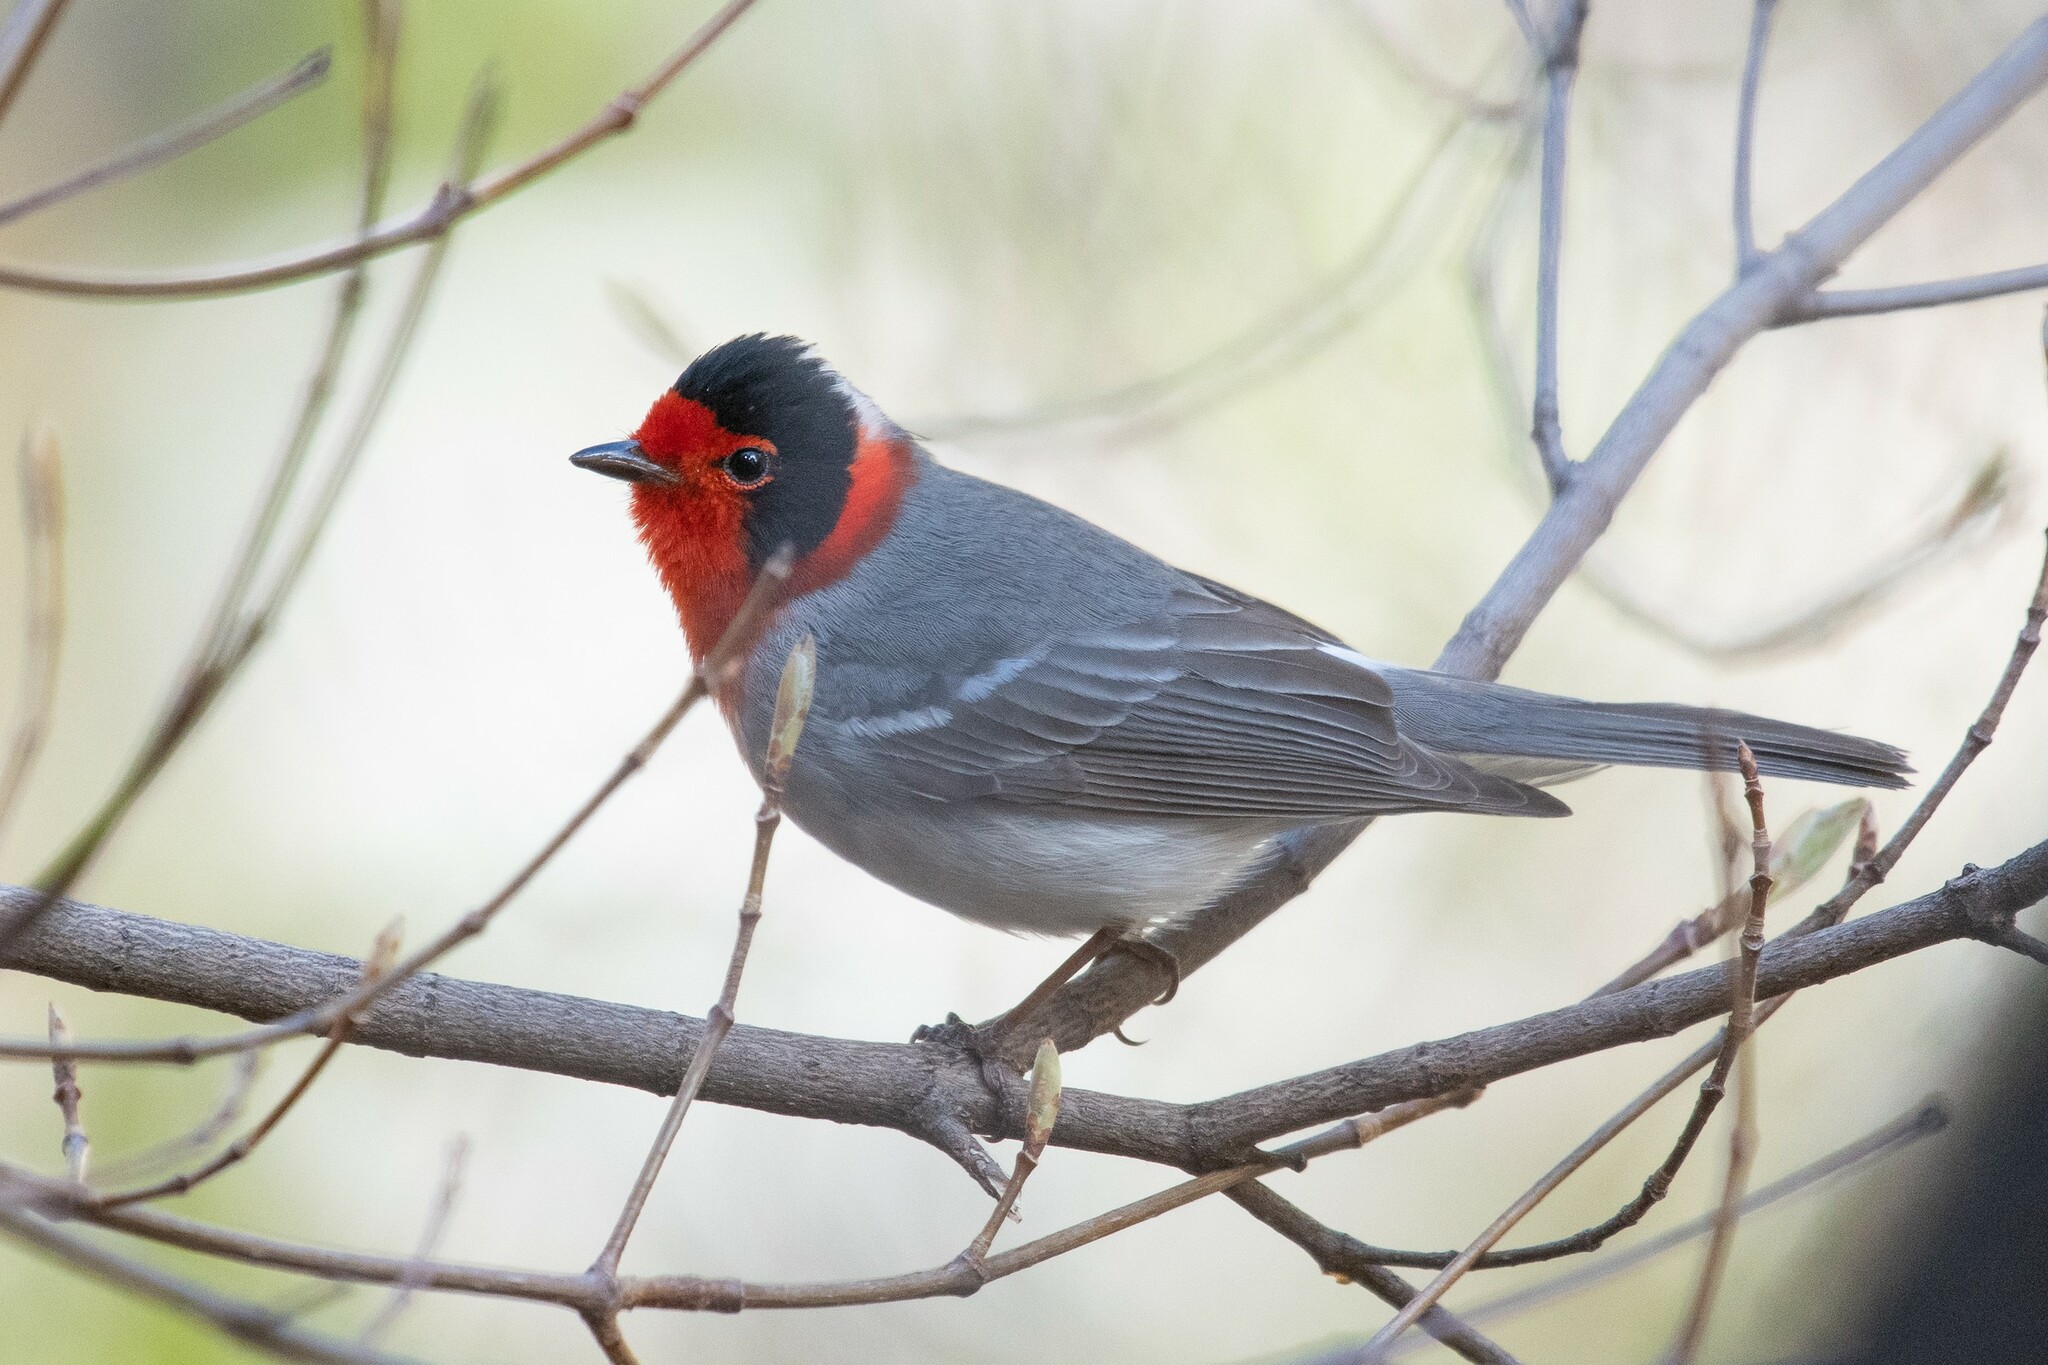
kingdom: Animalia
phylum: Chordata
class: Aves
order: Passeriformes
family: Parulidae
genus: Cardellina
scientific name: Cardellina rubrifrons
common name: Red-faced warbler
